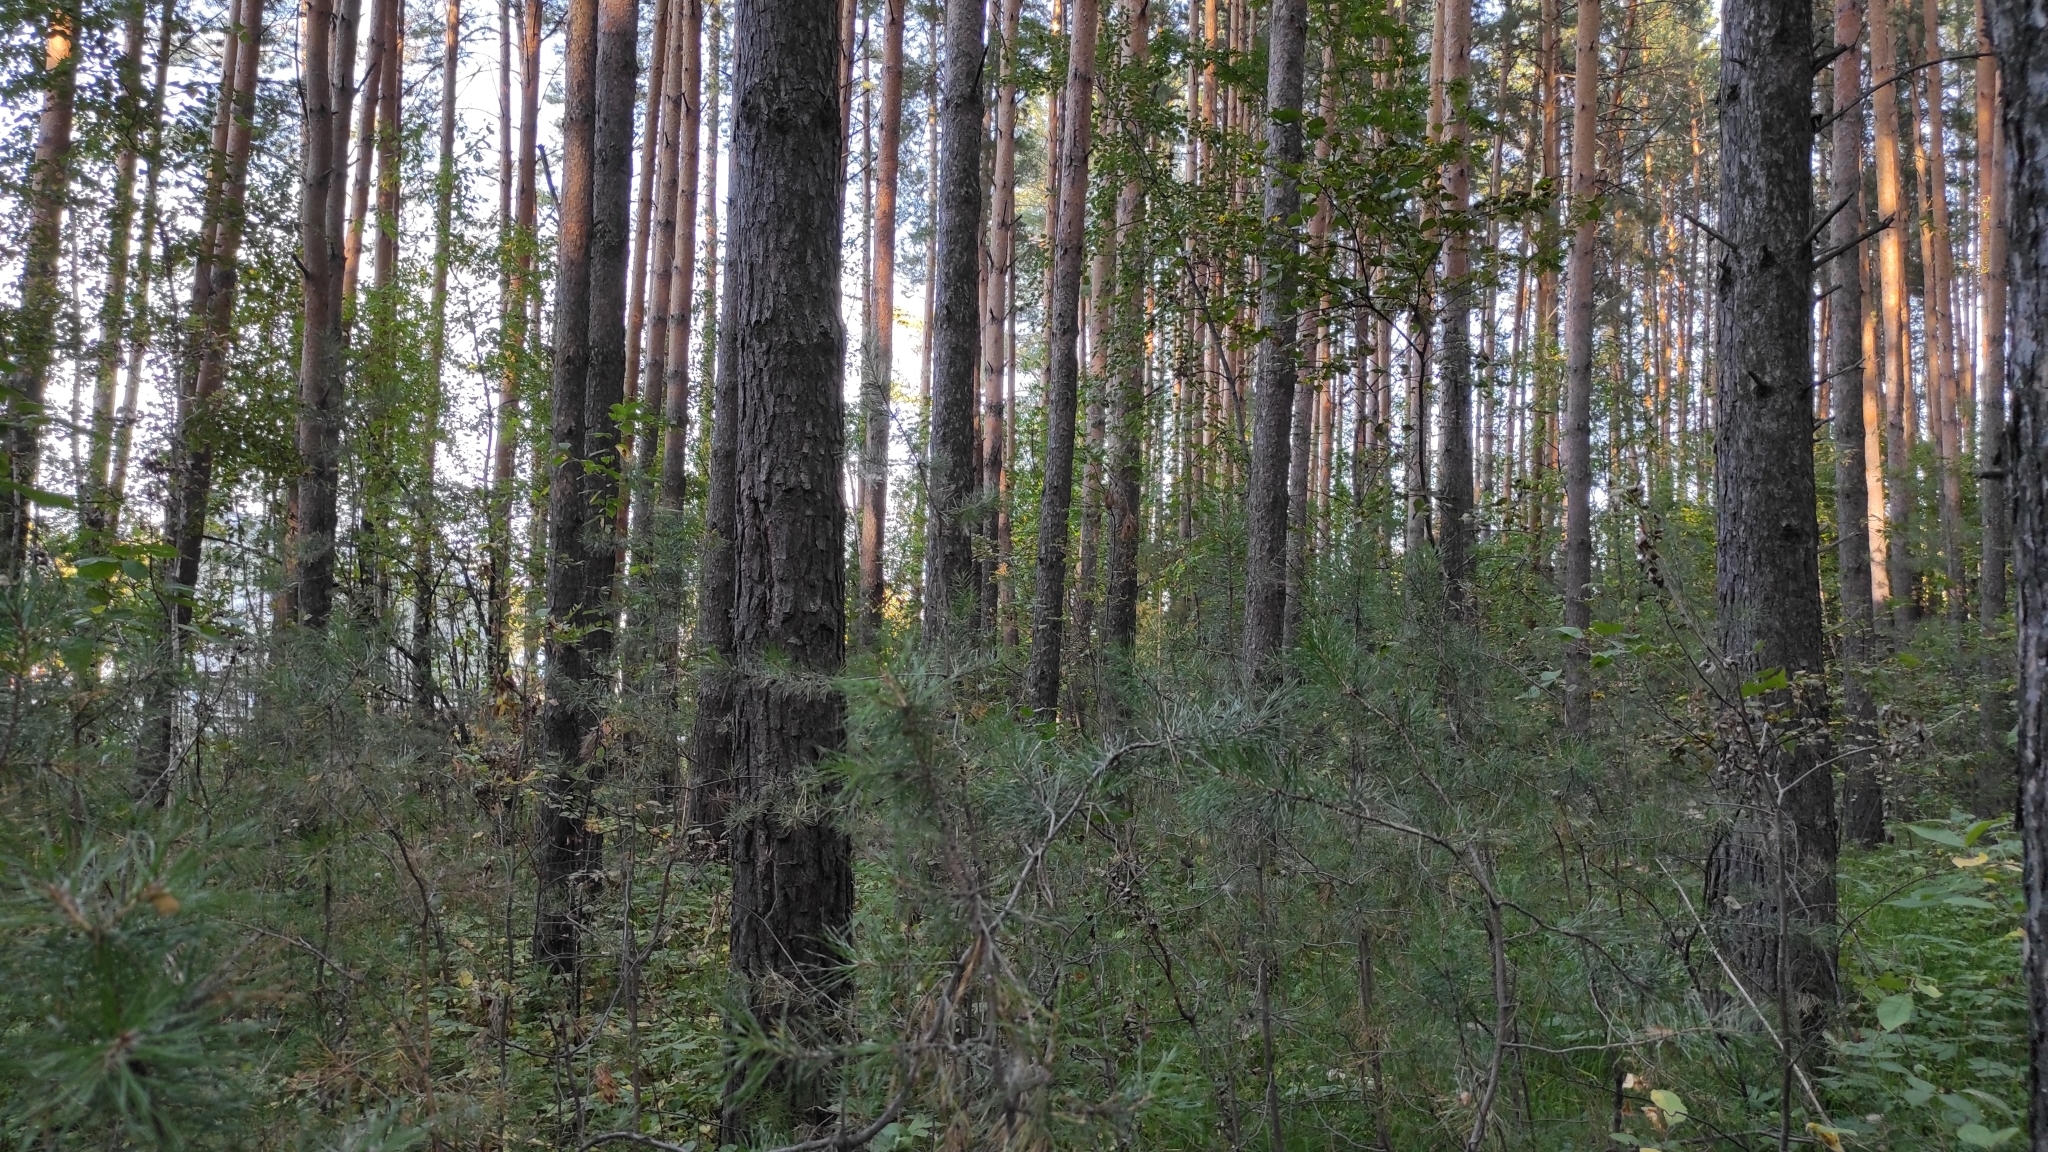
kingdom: Plantae
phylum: Tracheophyta
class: Pinopsida
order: Pinales
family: Pinaceae
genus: Pinus
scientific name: Pinus sylvestris
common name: Scots pine
